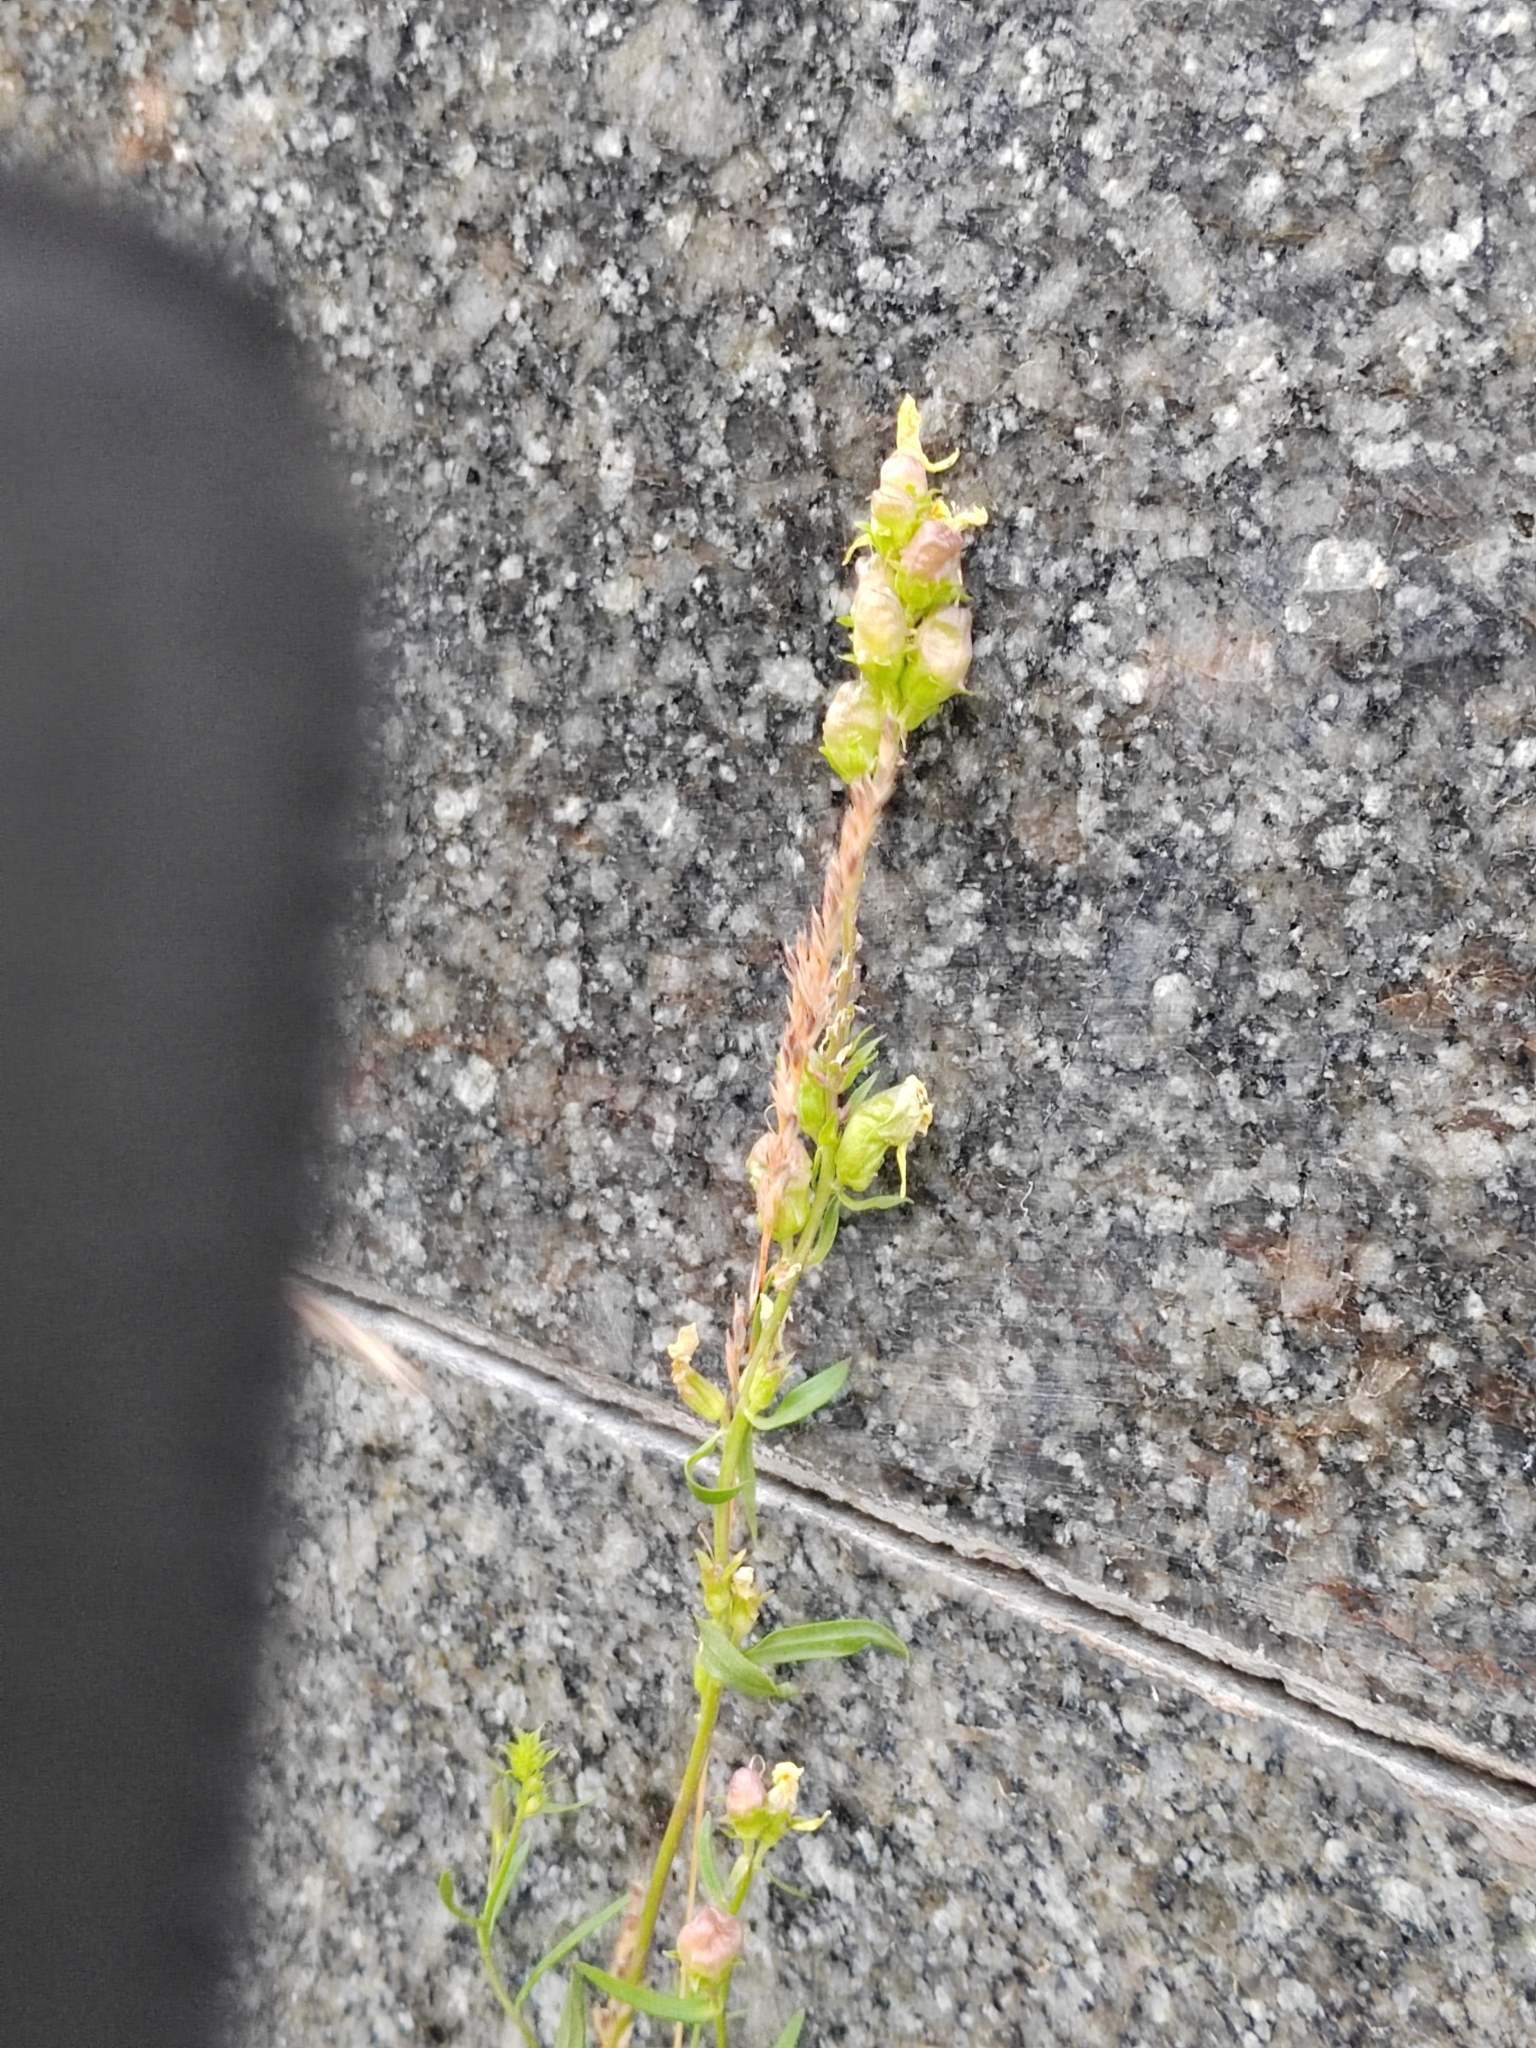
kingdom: Plantae
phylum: Tracheophyta
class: Magnoliopsida
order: Lamiales
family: Plantaginaceae
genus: Linaria
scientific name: Linaria vulgaris
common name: Butter and eggs
